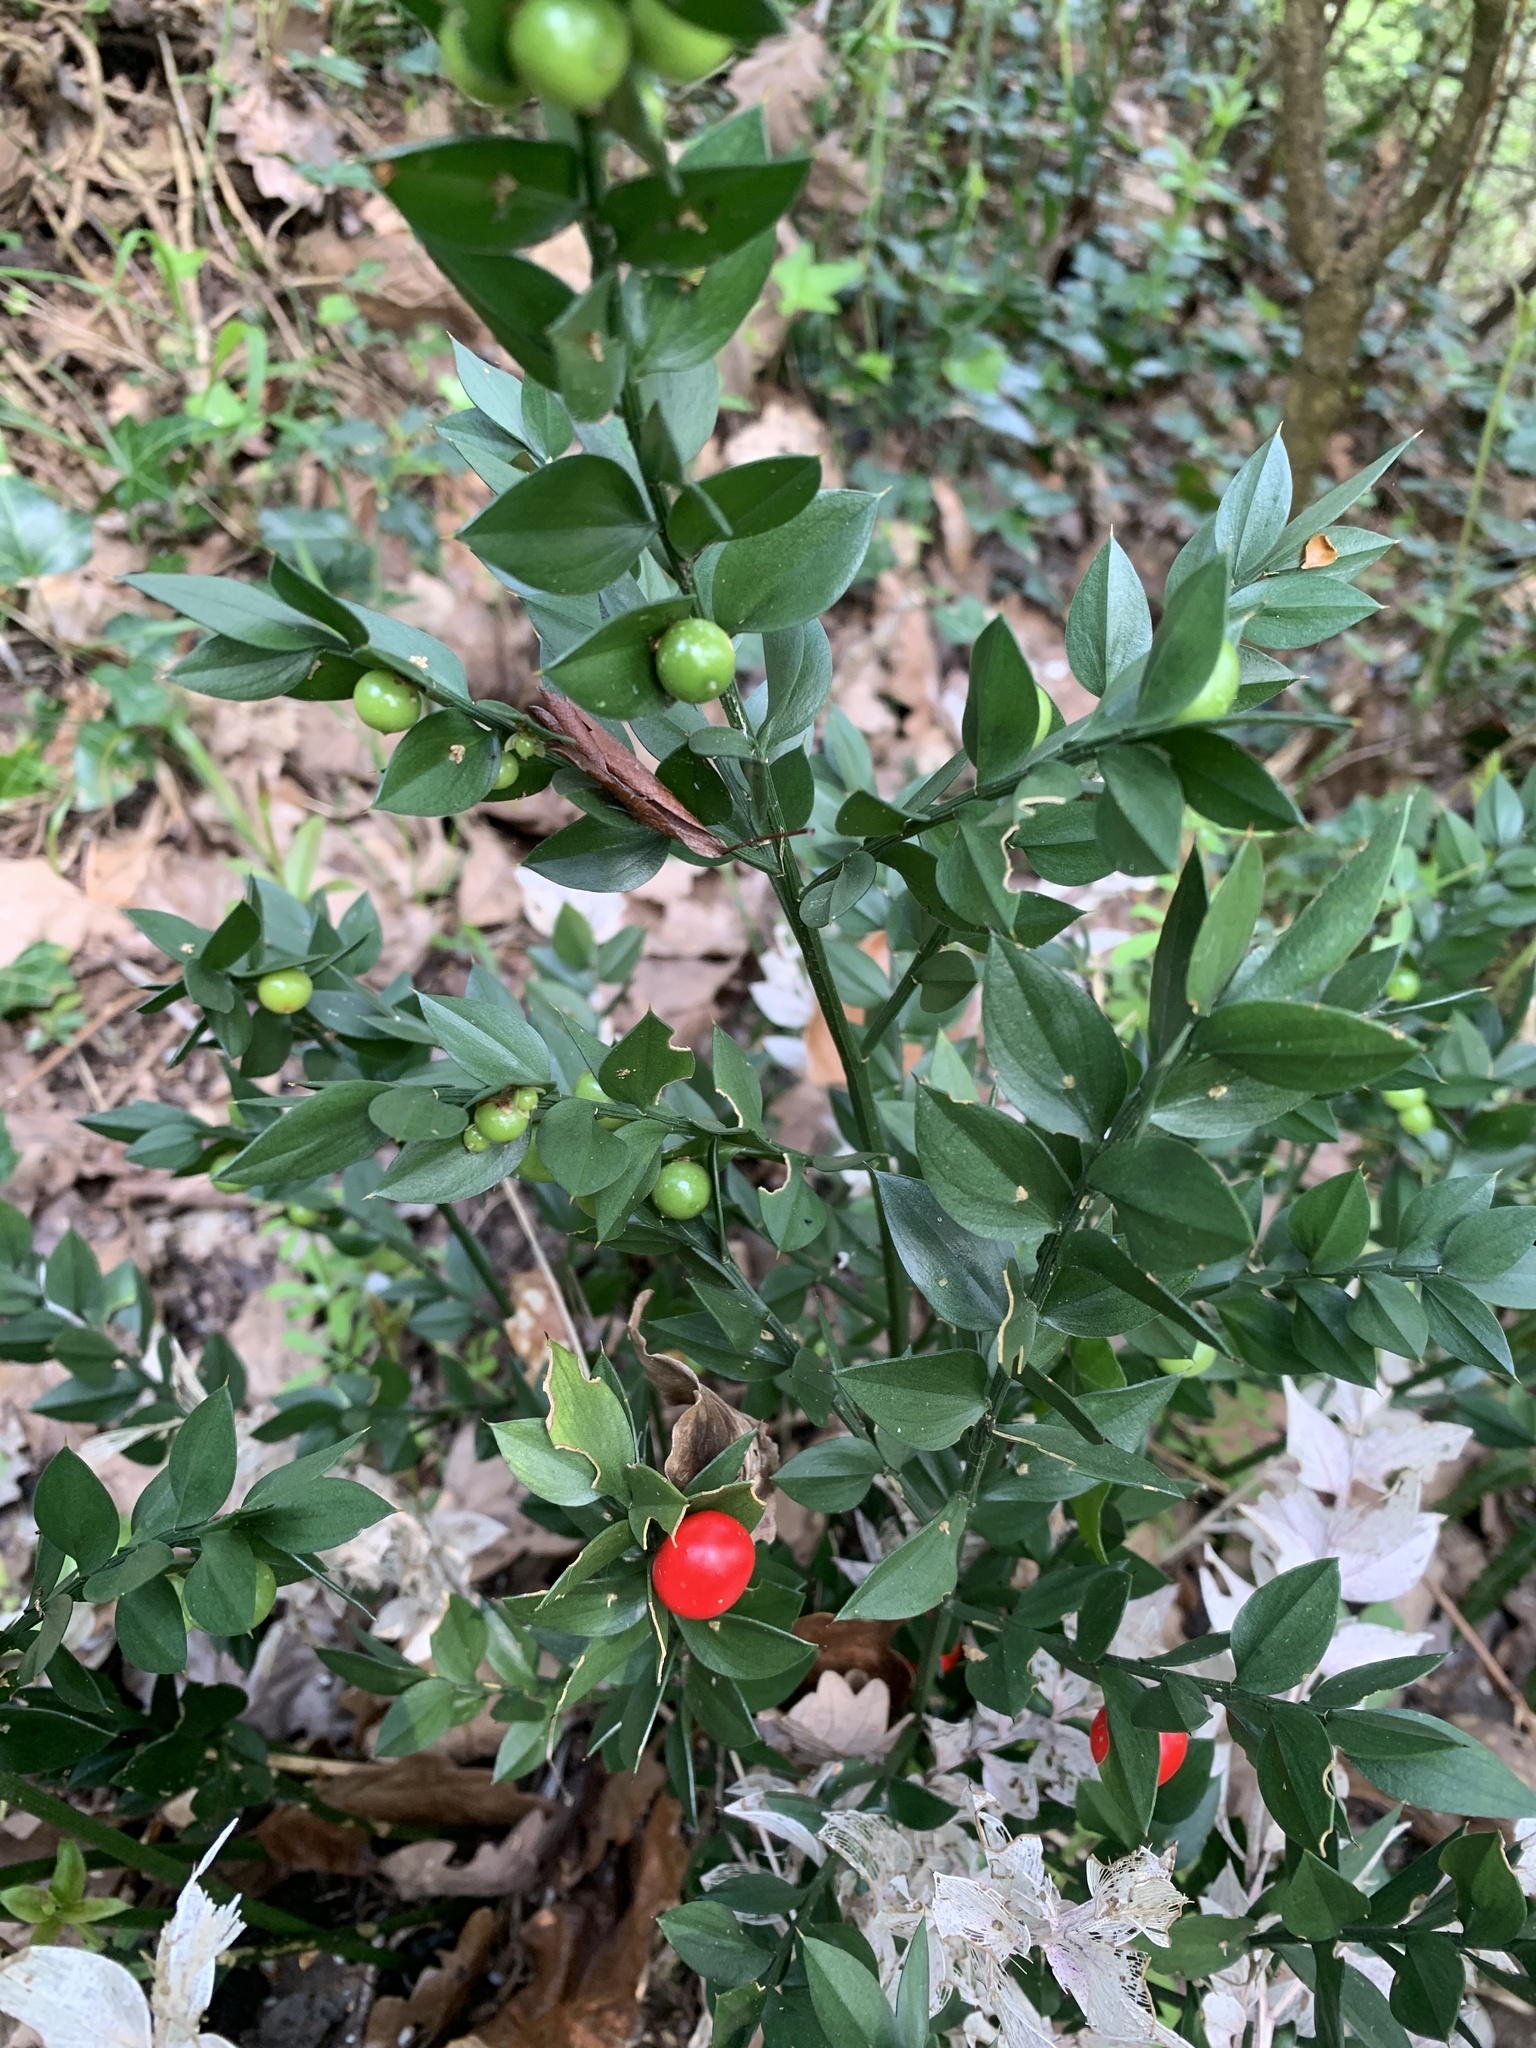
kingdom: Plantae
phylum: Tracheophyta
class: Liliopsida
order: Asparagales
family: Asparagaceae
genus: Ruscus
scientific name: Ruscus aculeatus
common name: Butcher's-broom
